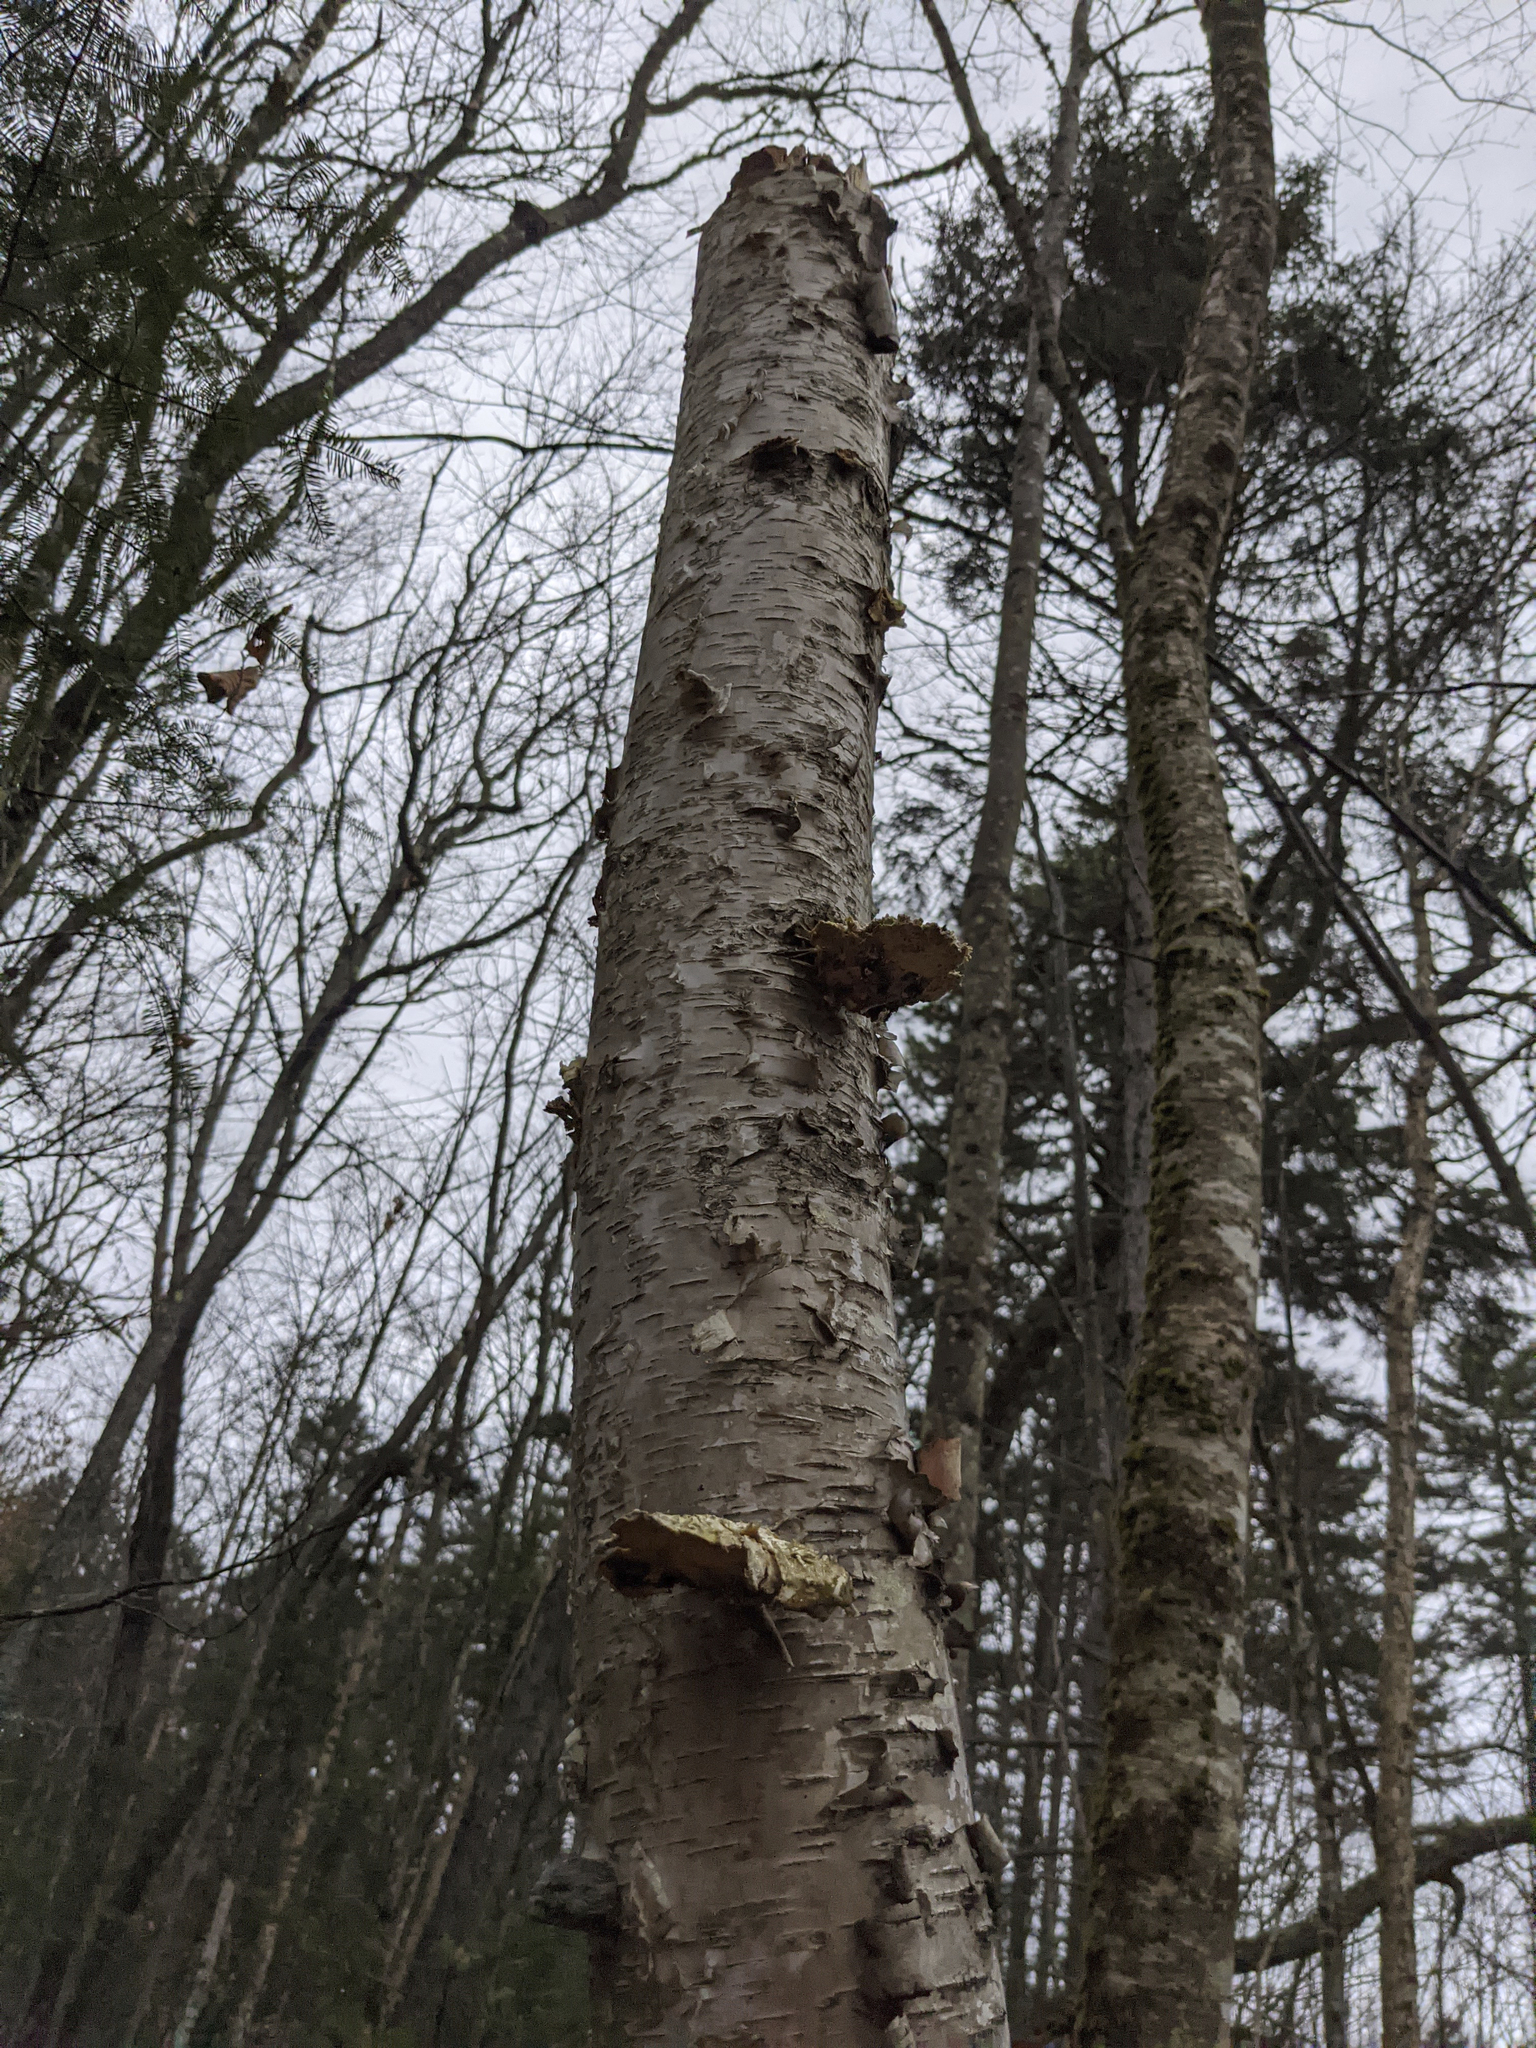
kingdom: Fungi
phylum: Basidiomycota
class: Agaricomycetes
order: Polyporales
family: Fomitopsidaceae
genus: Fomitopsis
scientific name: Fomitopsis betulina
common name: Birch polypore
